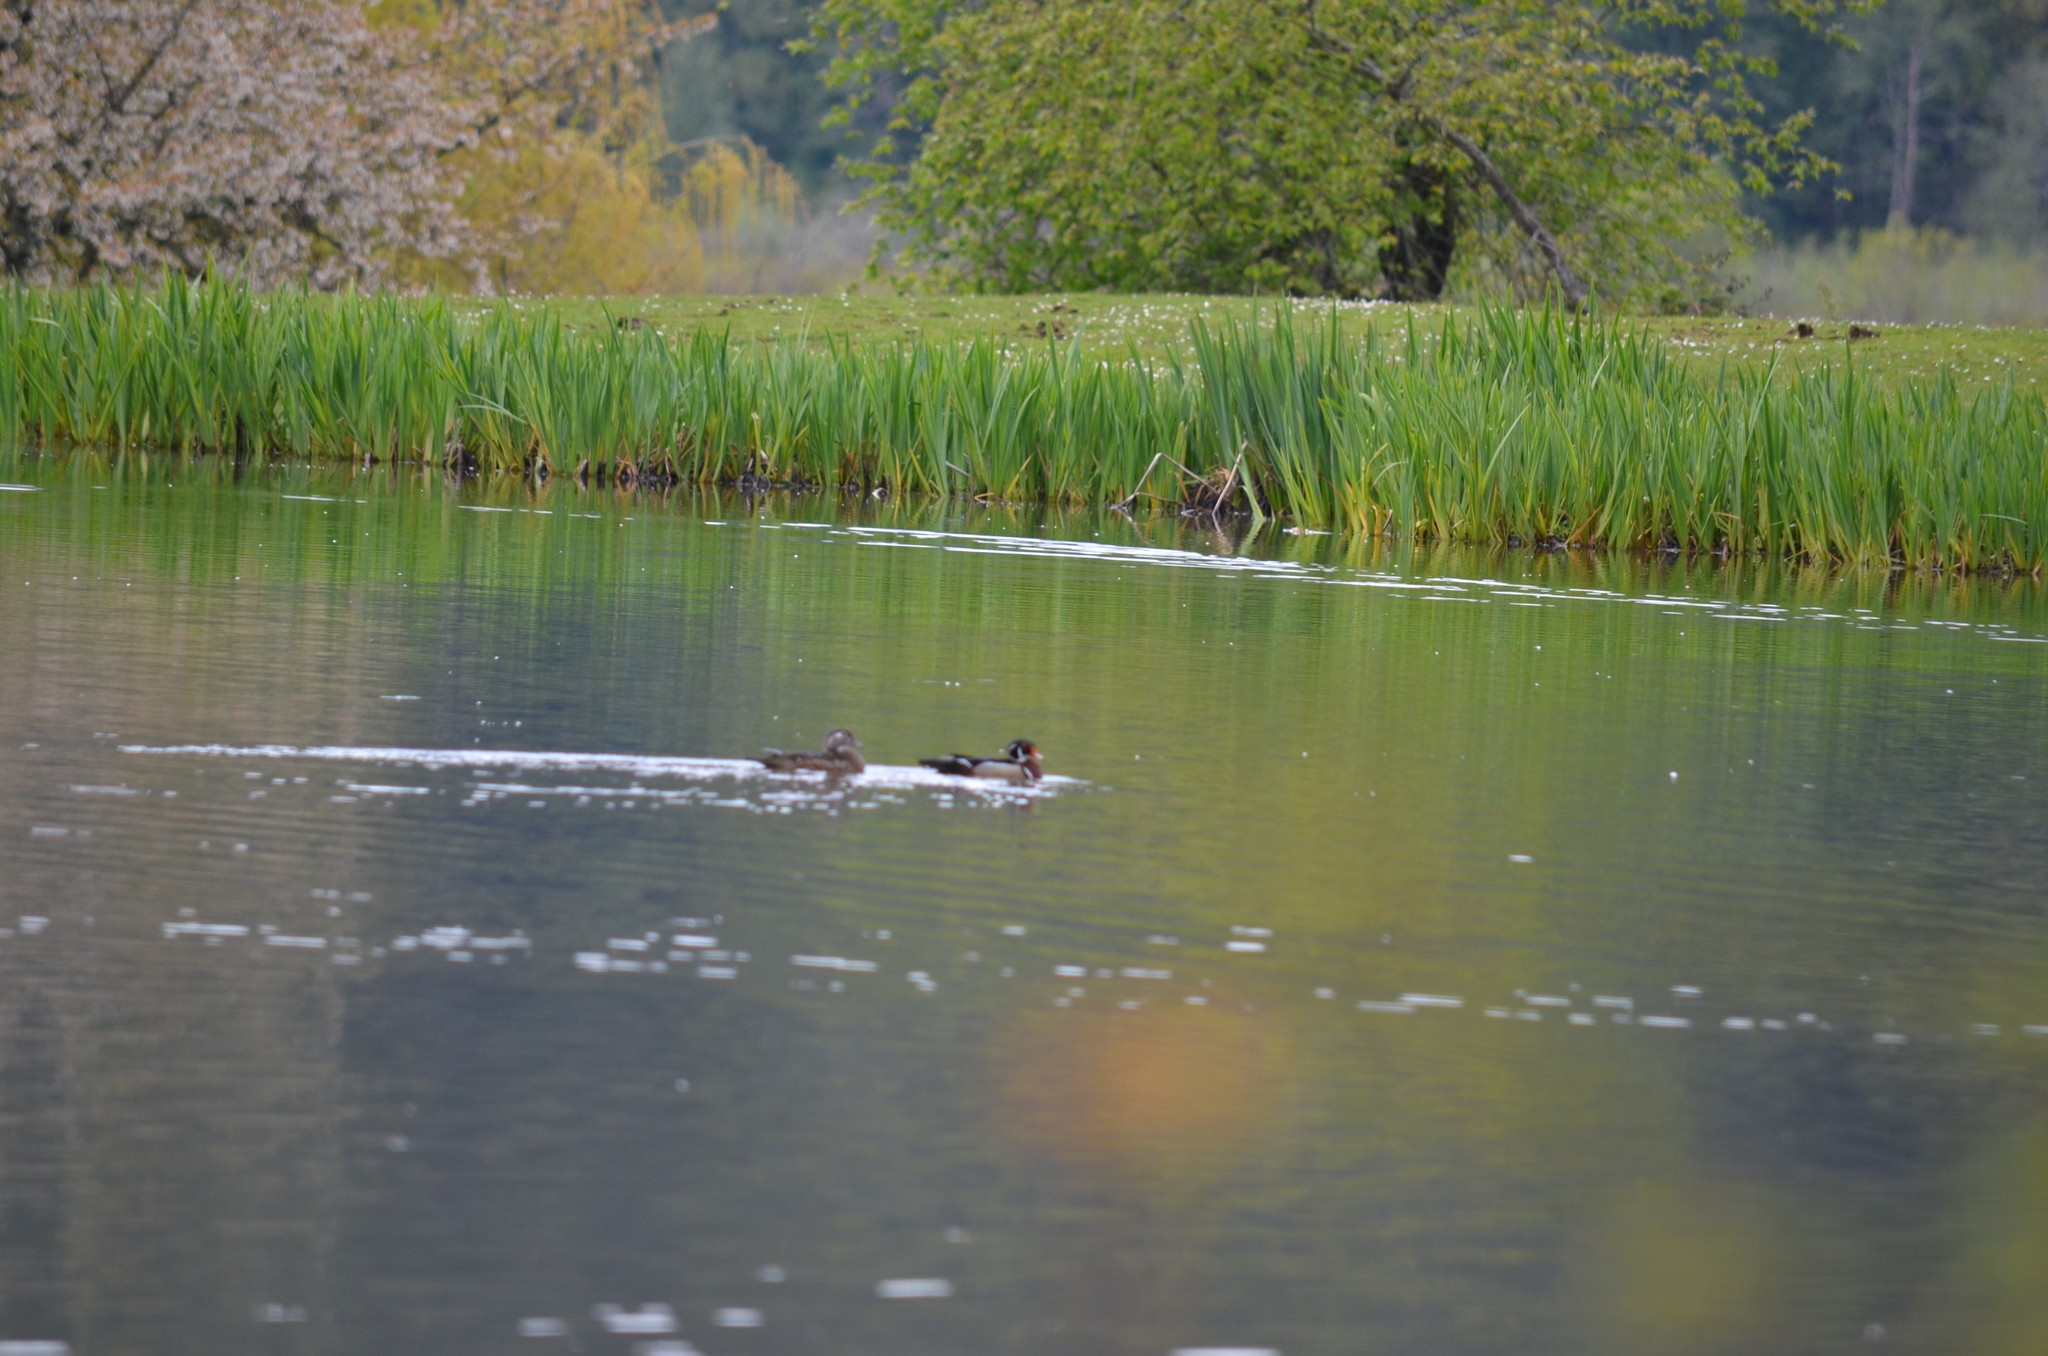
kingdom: Animalia
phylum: Chordata
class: Aves
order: Anseriformes
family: Anatidae
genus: Aix
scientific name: Aix sponsa
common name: Wood duck
